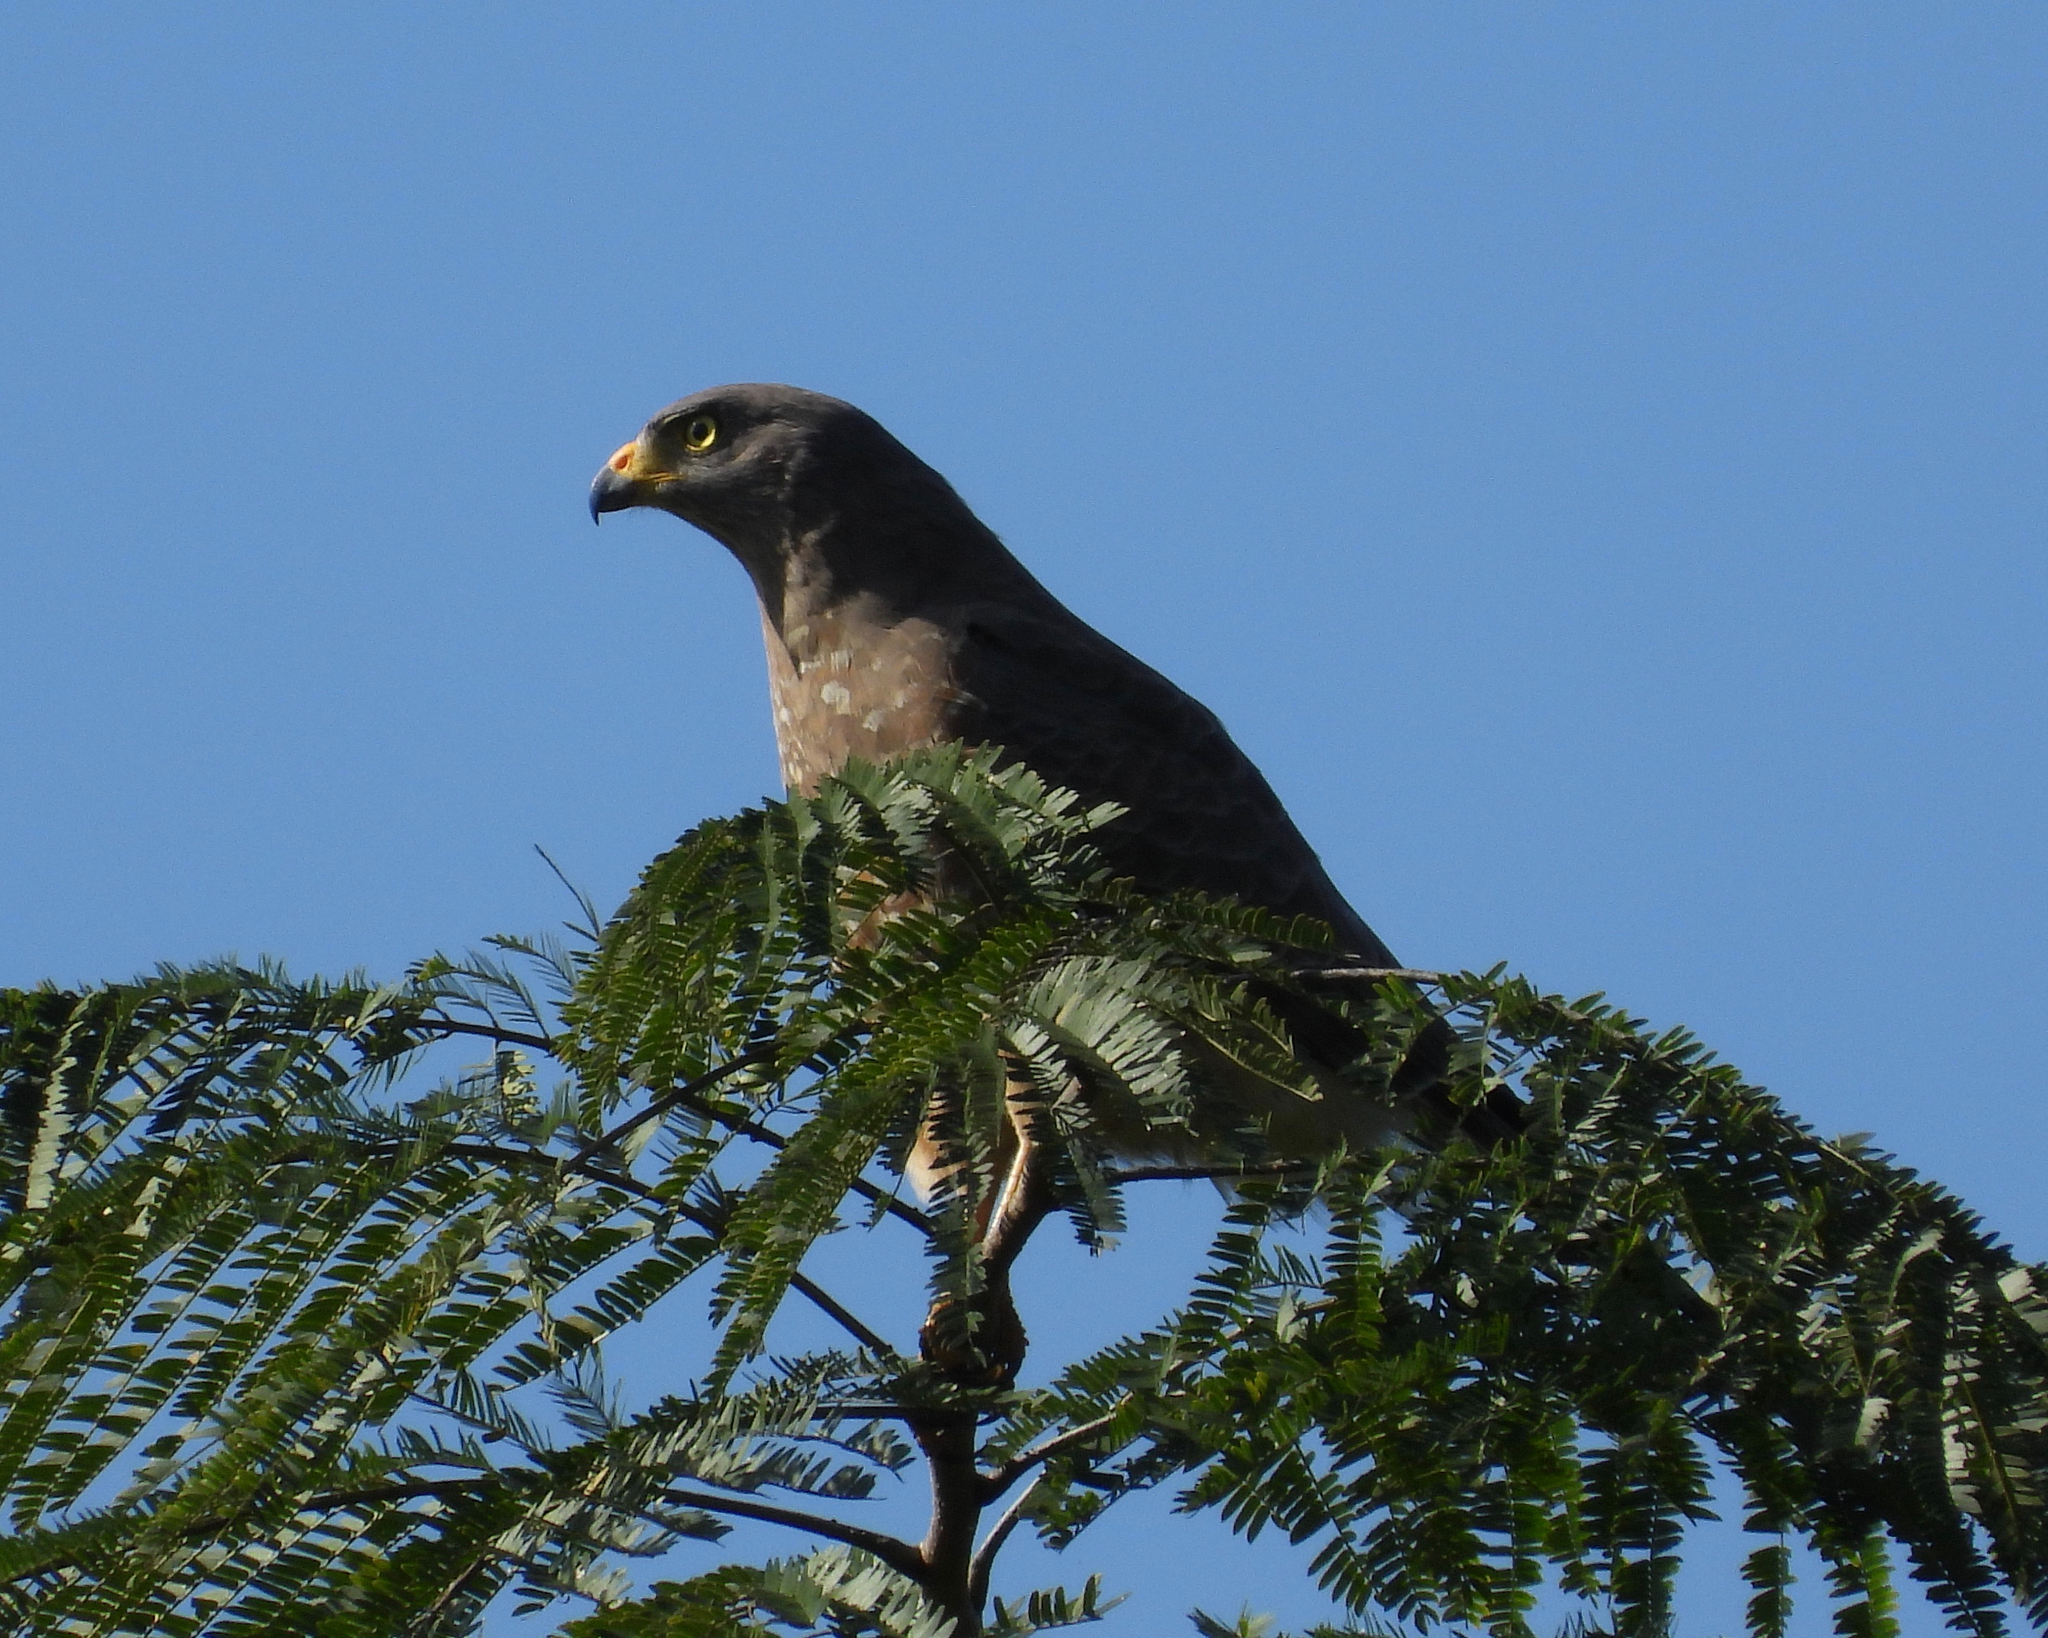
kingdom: Animalia
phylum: Chordata
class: Aves
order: Accipitriformes
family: Accipitridae
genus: Rupornis
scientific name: Rupornis magnirostris
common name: Roadside hawk
